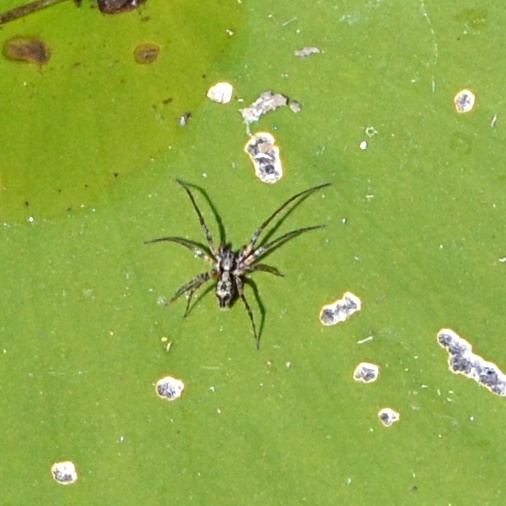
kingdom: Animalia
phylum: Arthropoda
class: Arachnida
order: Araneae
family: Anyphaenidae
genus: Anyphaena
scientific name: Anyphaena accentuata
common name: Buzzing spider
